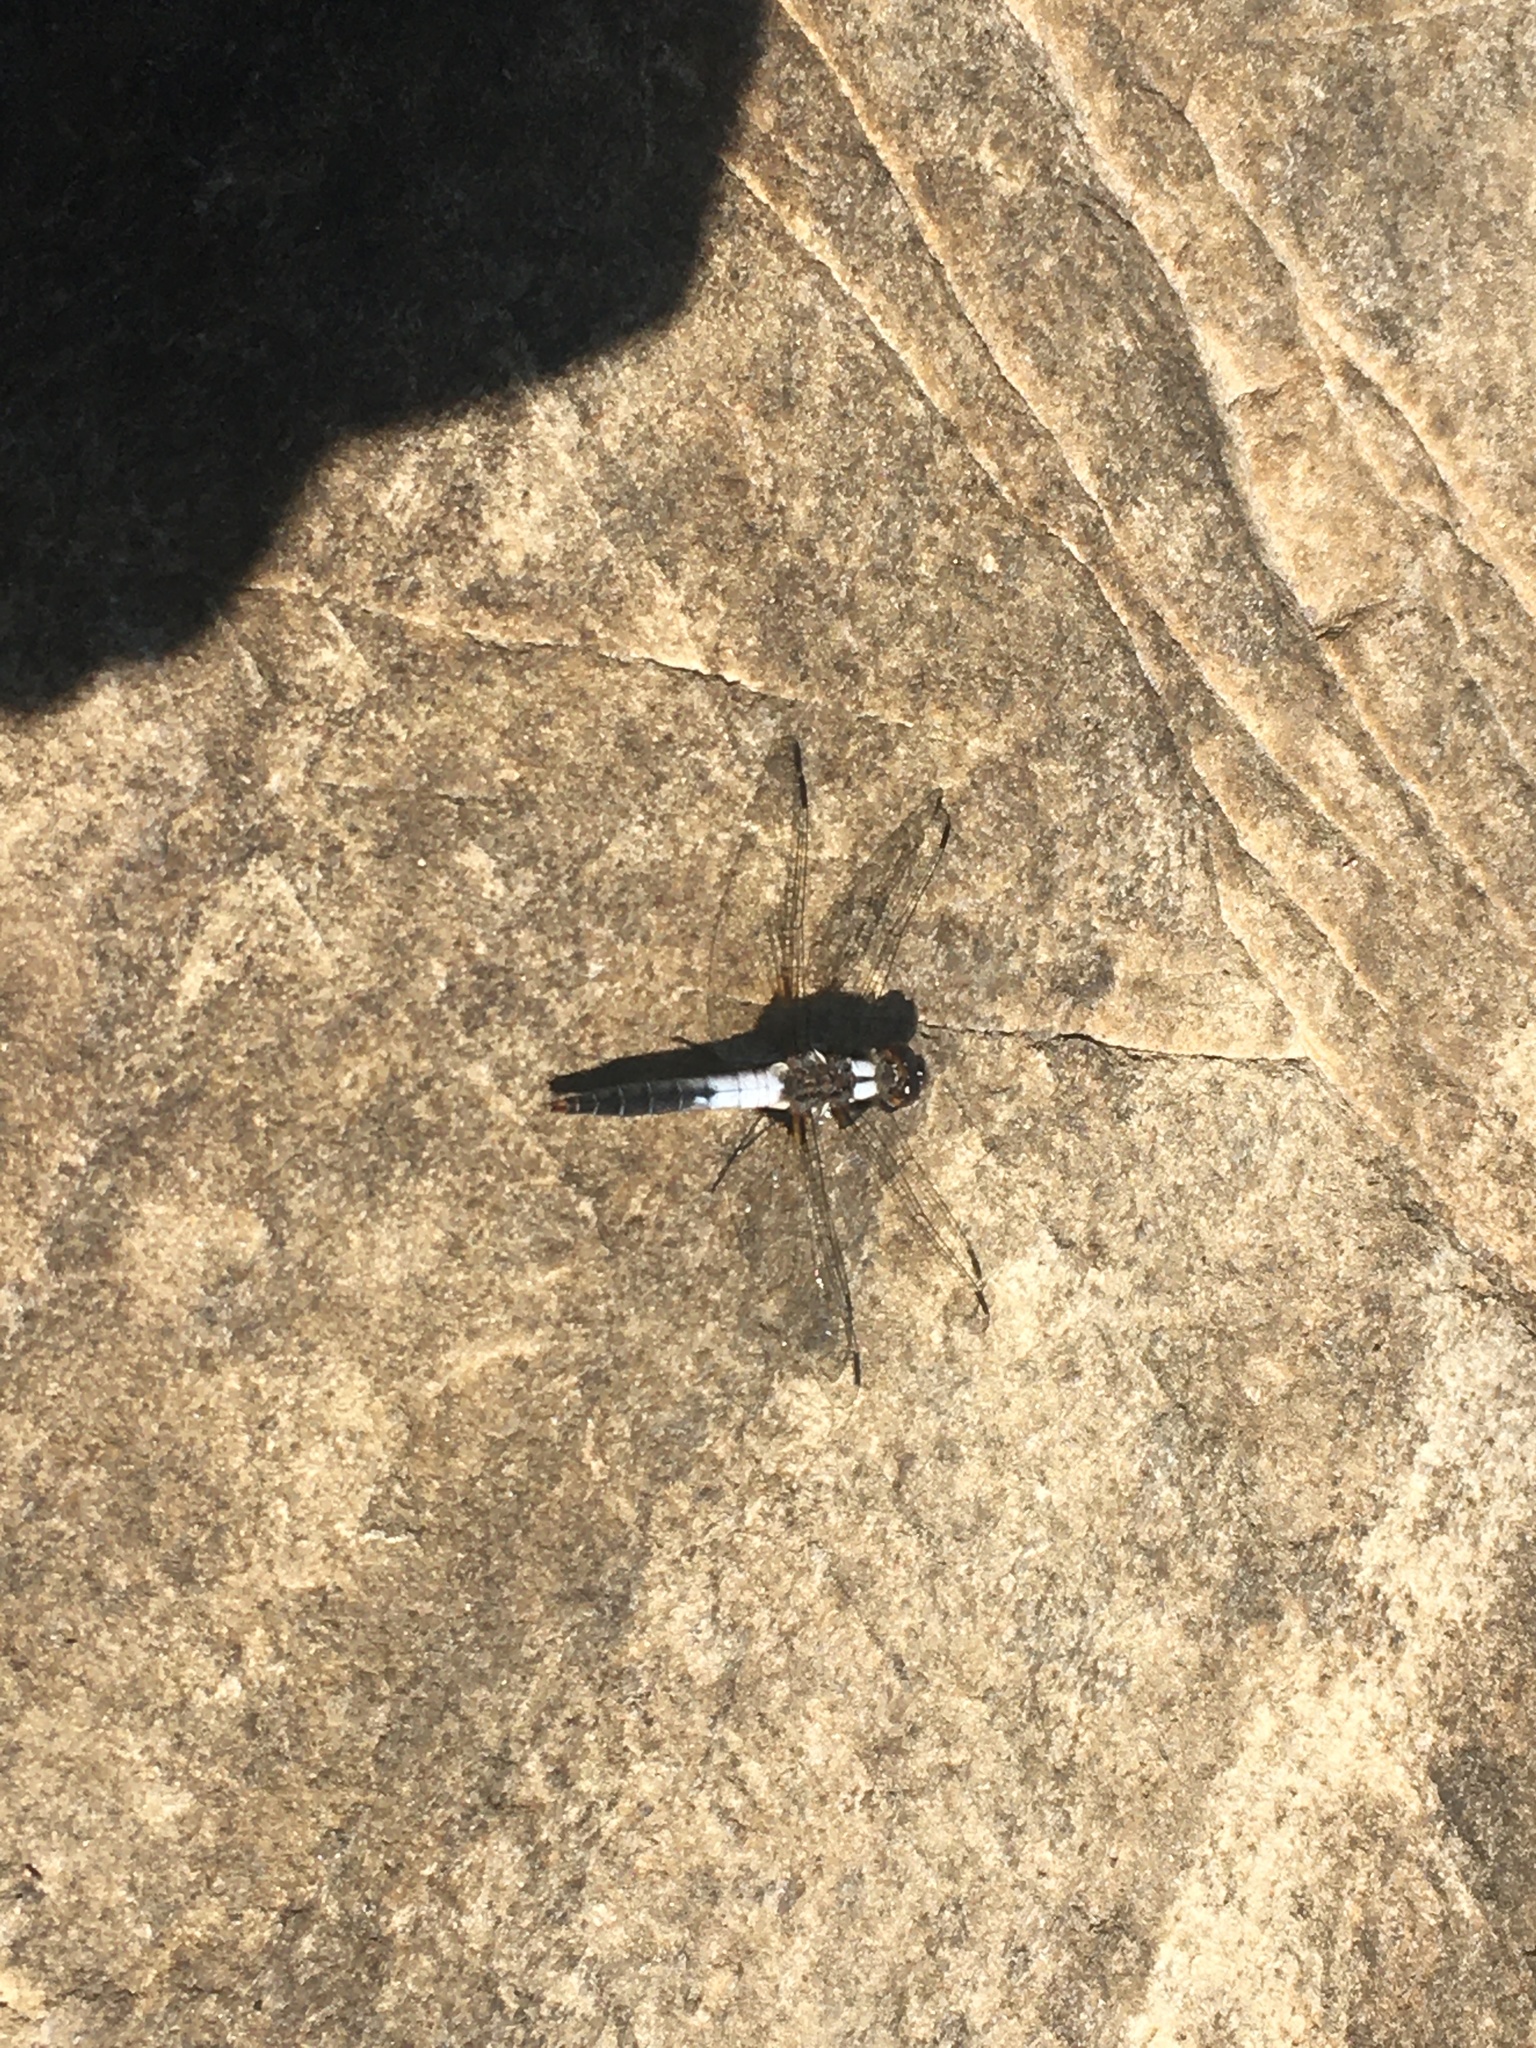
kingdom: Animalia
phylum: Arthropoda
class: Insecta
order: Odonata
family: Libellulidae
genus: Ladona
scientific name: Ladona julia
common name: Chalk-fronted corporal
